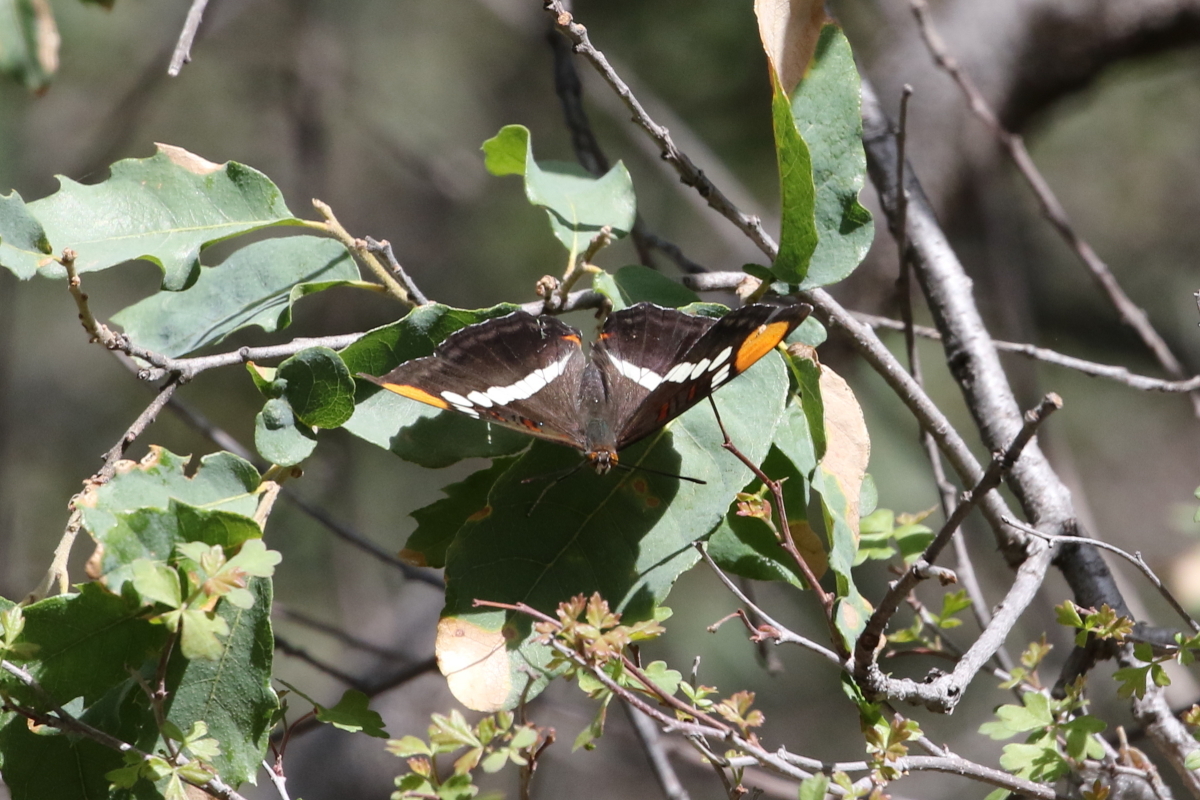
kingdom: Animalia
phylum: Arthropoda
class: Insecta
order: Lepidoptera
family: Nymphalidae
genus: Limenitis
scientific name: Limenitis bredowii
